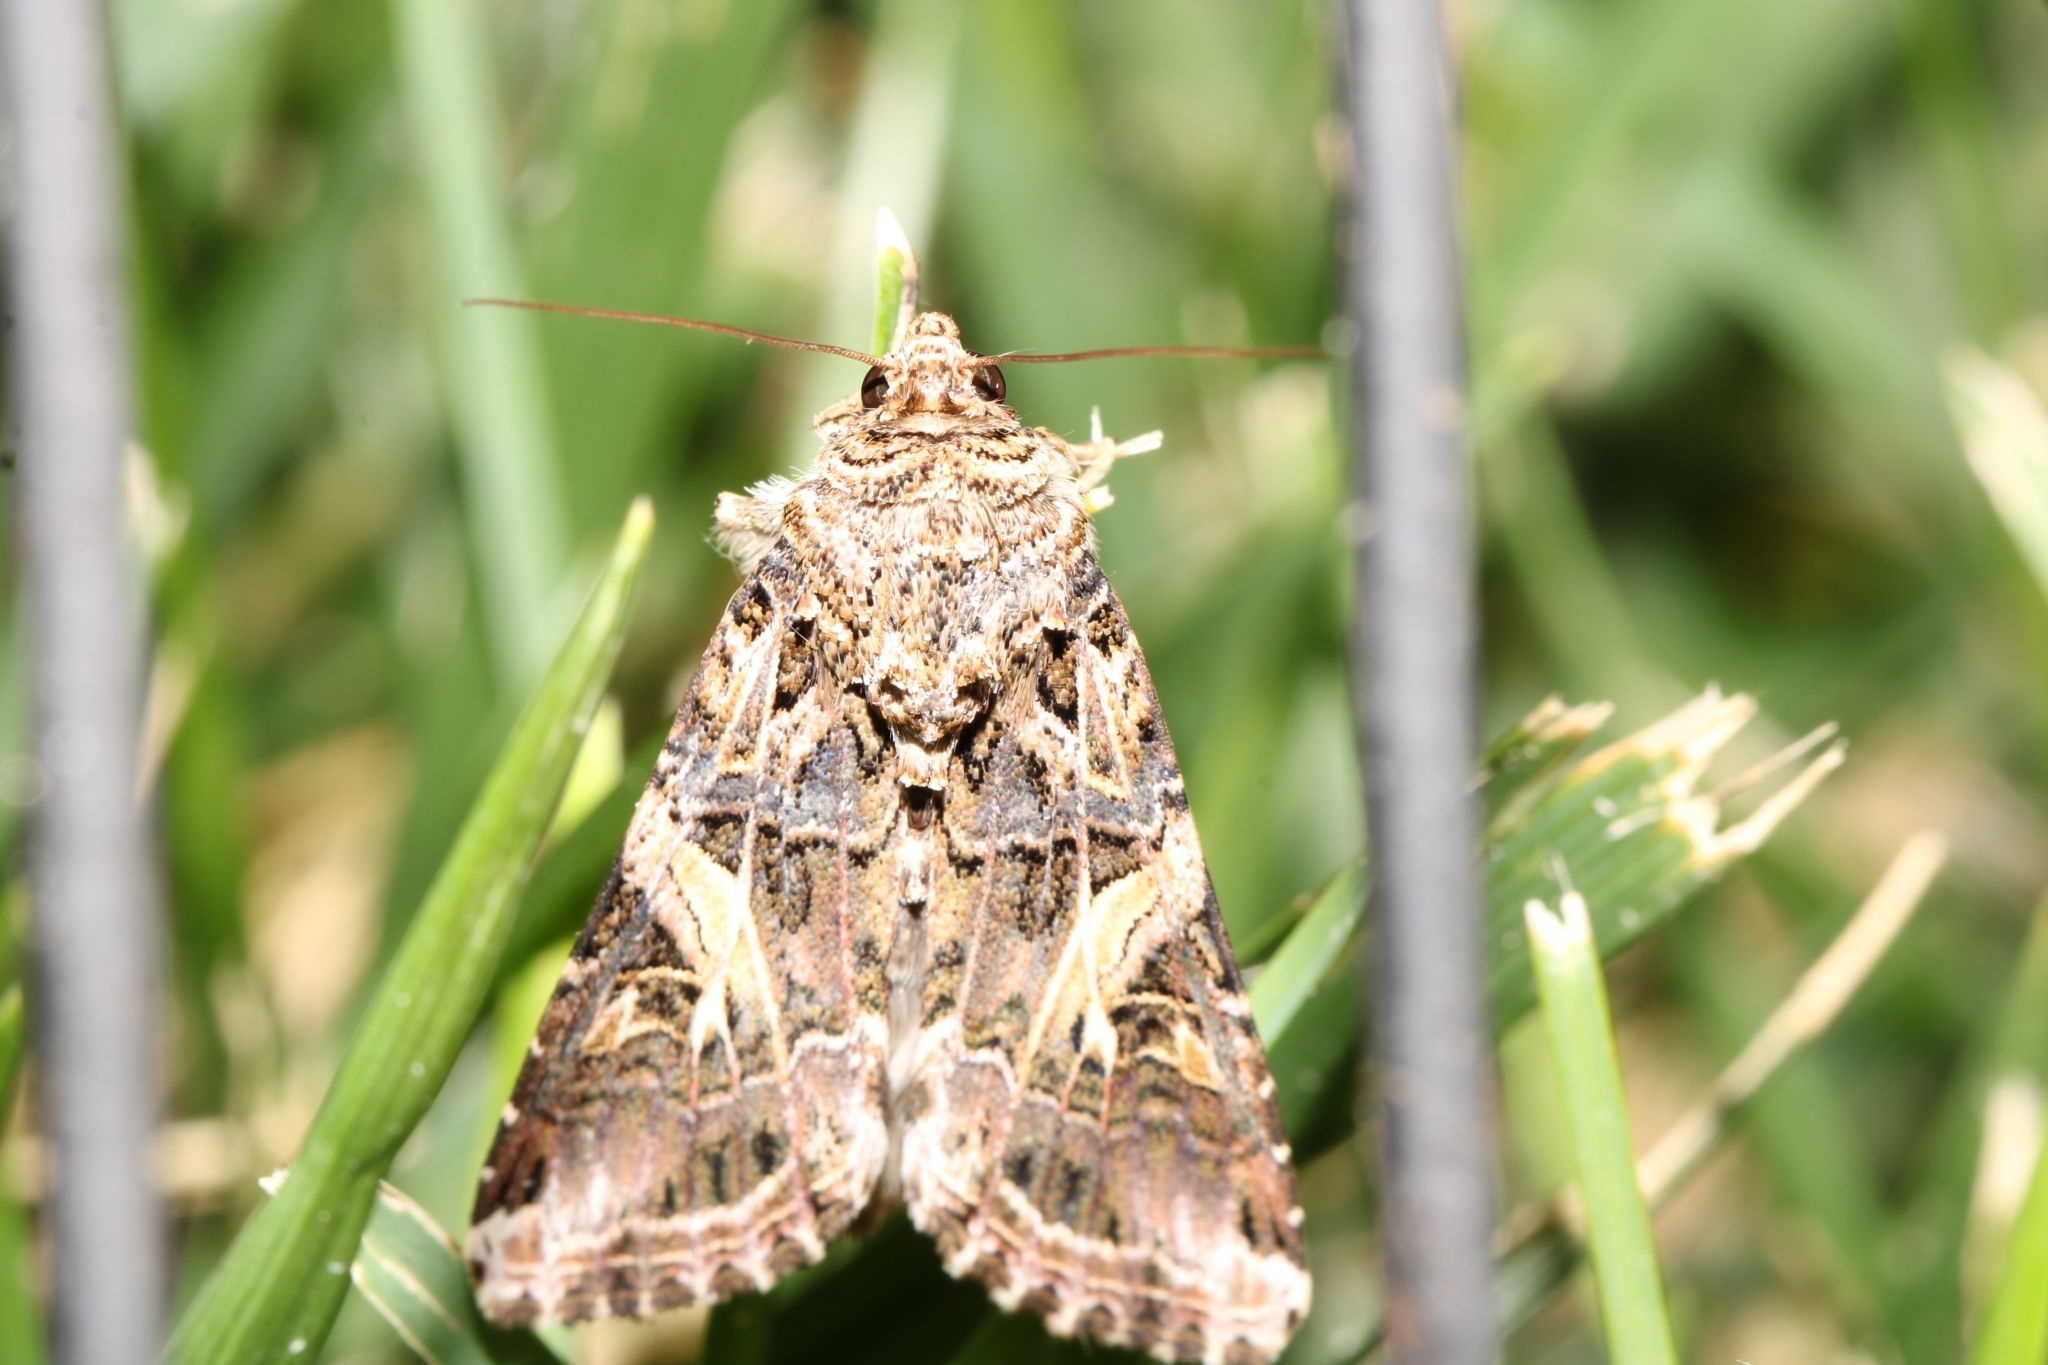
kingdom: Animalia
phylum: Arthropoda
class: Insecta
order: Lepidoptera
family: Noctuidae
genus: Spodoptera
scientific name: Spodoptera ornithogalli
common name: Yellow-striped armyworm
